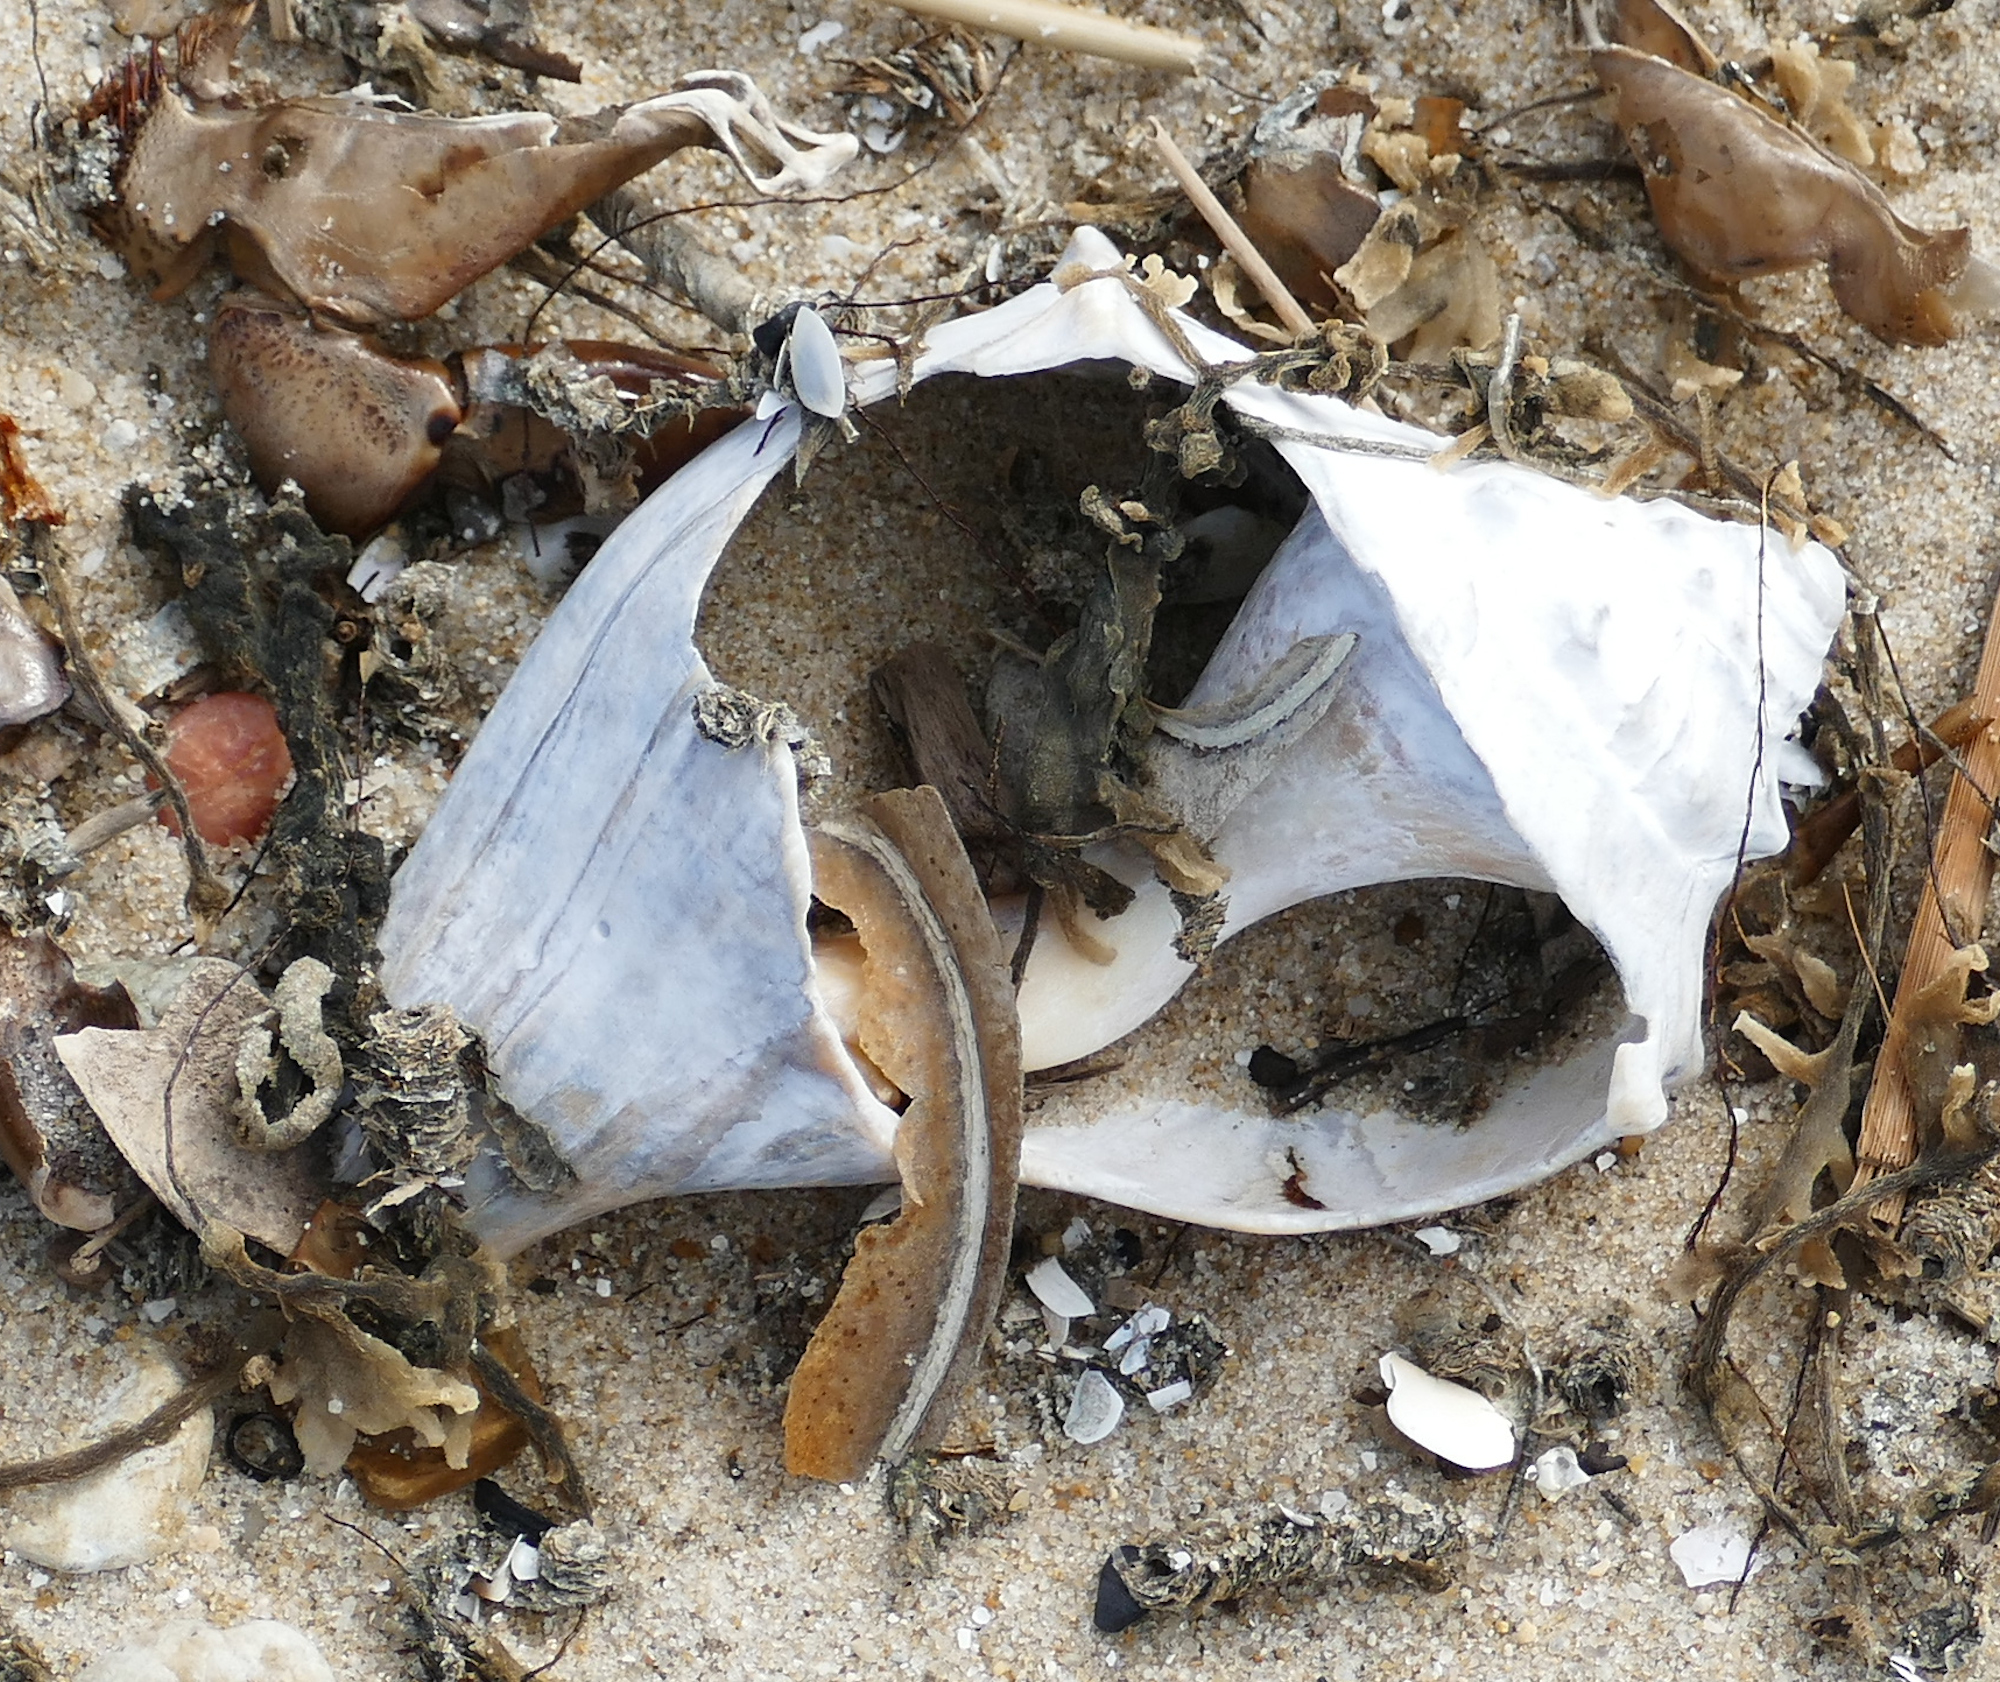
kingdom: Animalia
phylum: Mollusca
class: Gastropoda
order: Neogastropoda
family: Busyconidae
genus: Busycon
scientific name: Busycon carica
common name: Knobbed whelk
